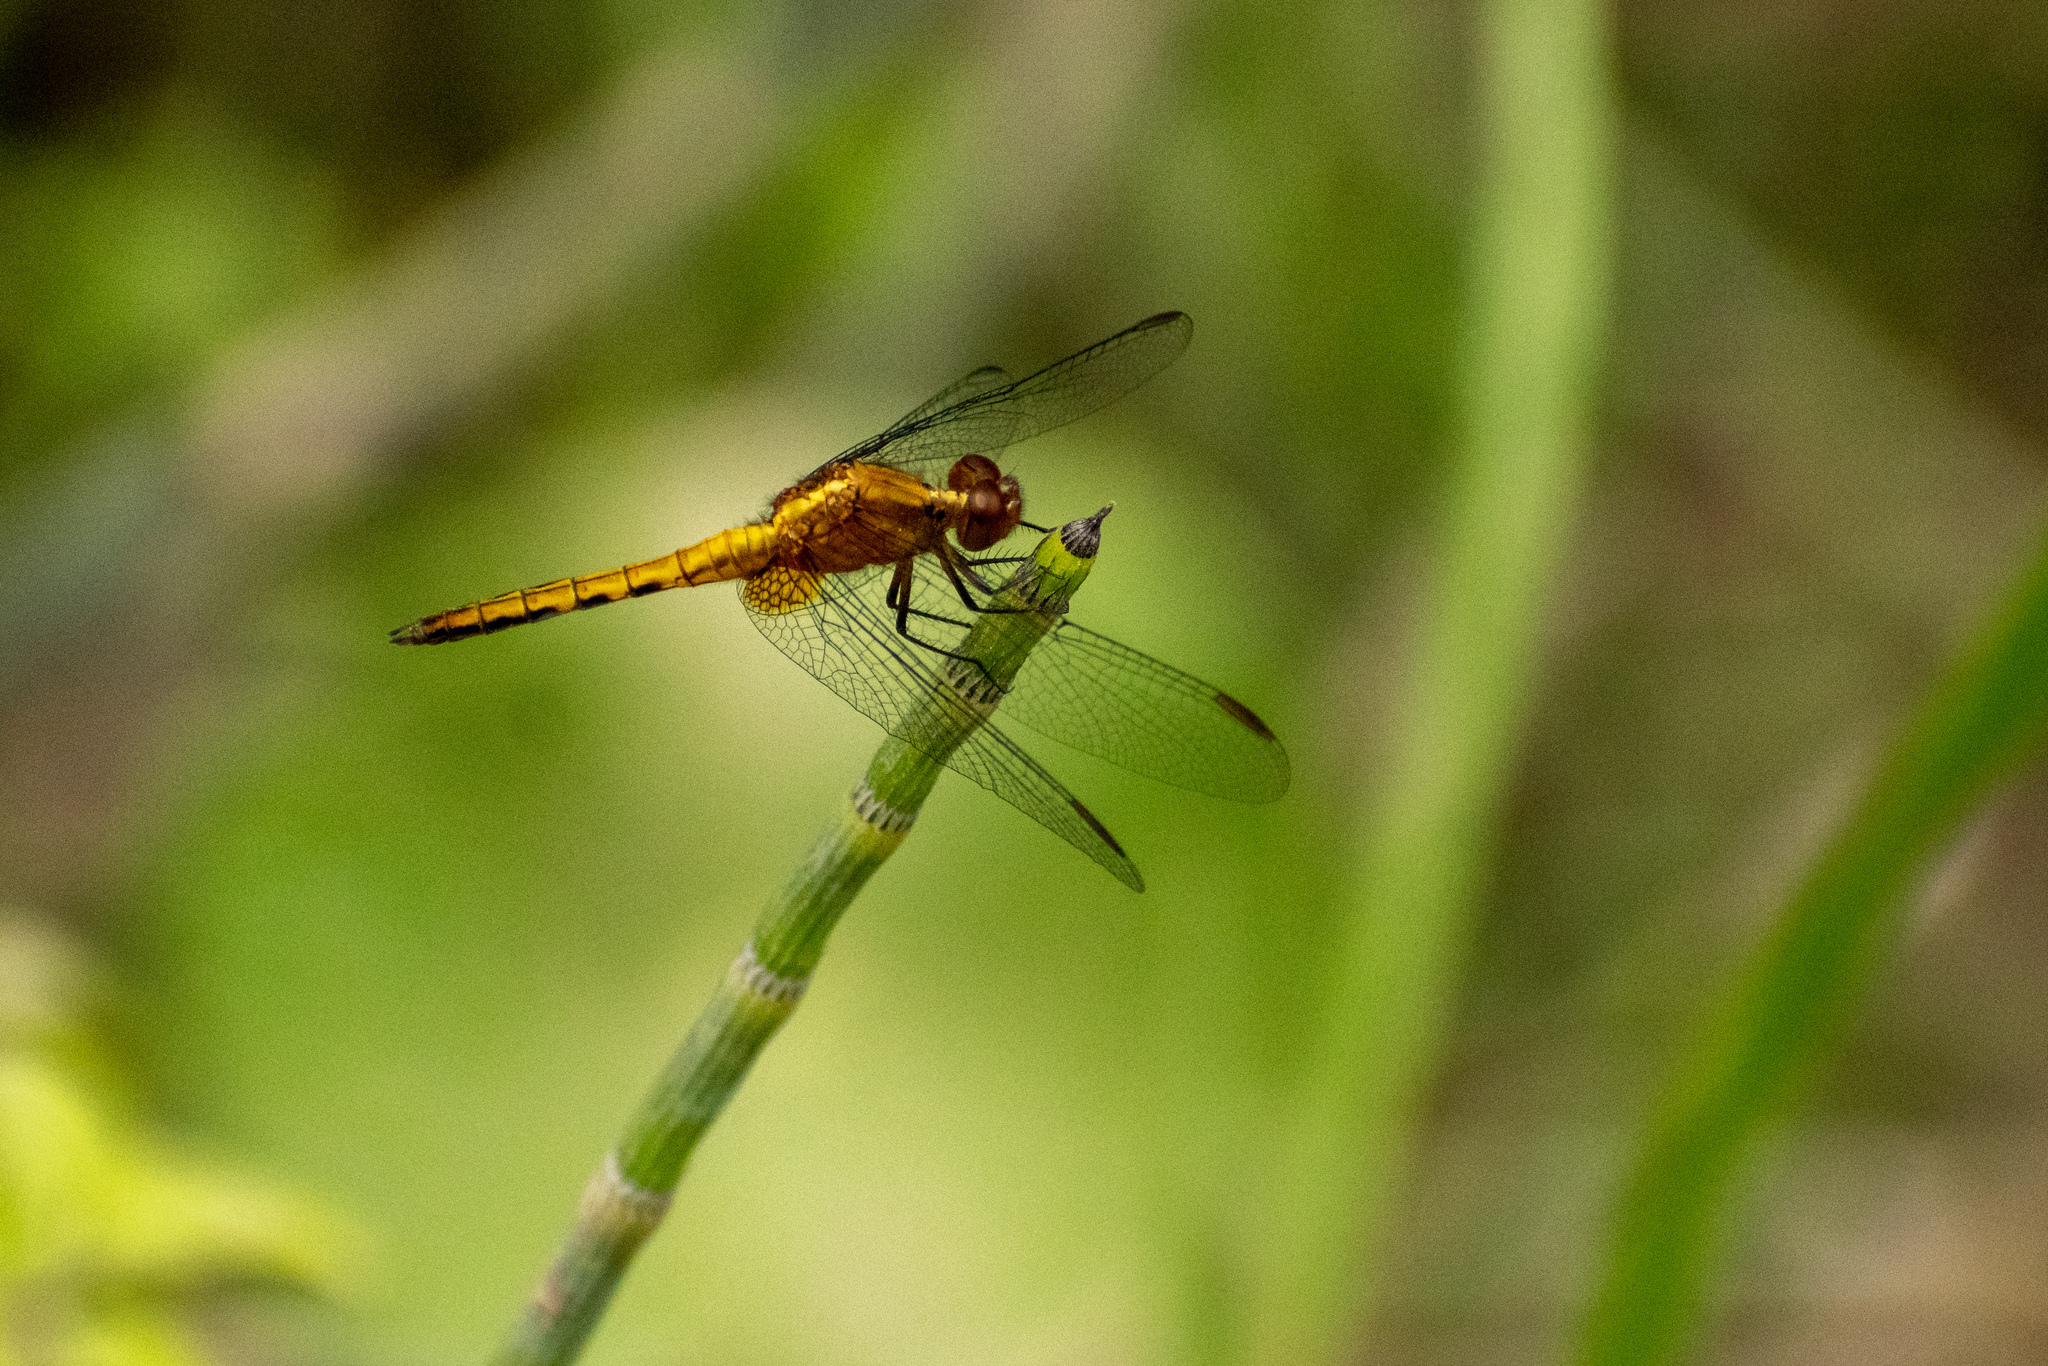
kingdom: Animalia
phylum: Arthropoda
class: Insecta
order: Odonata
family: Libellulidae
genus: Erythrodiplax
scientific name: Erythrodiplax media
